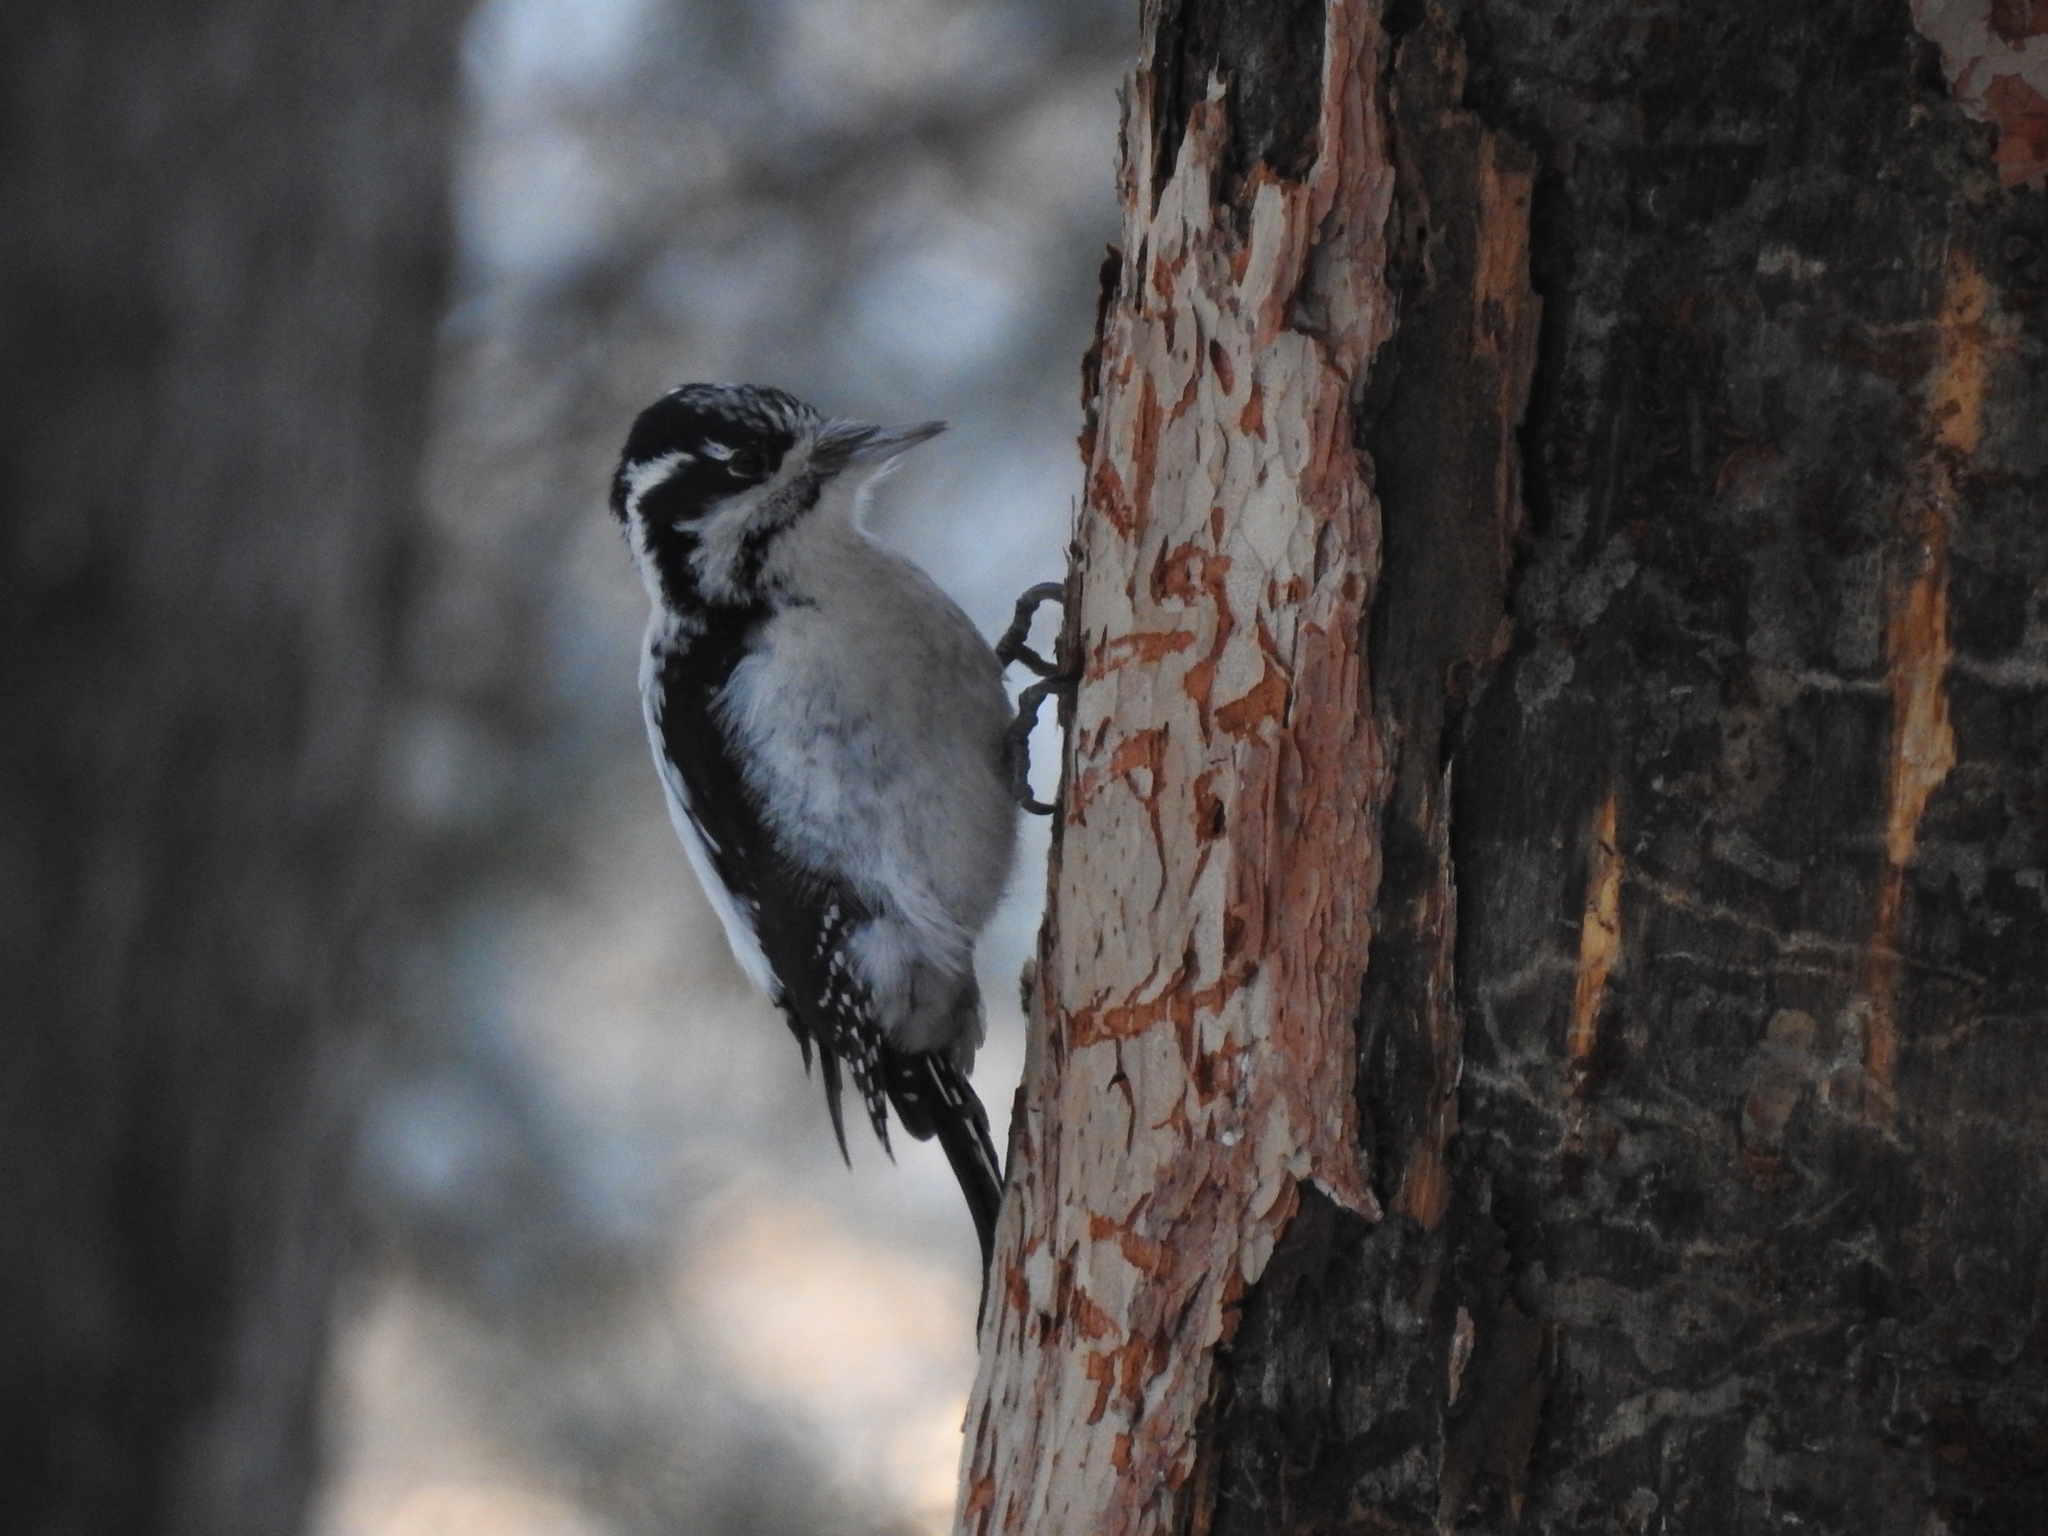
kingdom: Animalia
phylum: Chordata
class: Aves
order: Piciformes
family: Picidae
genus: Picoides
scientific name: Picoides tridactylus
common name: Eurasian three-toed woodpecker
